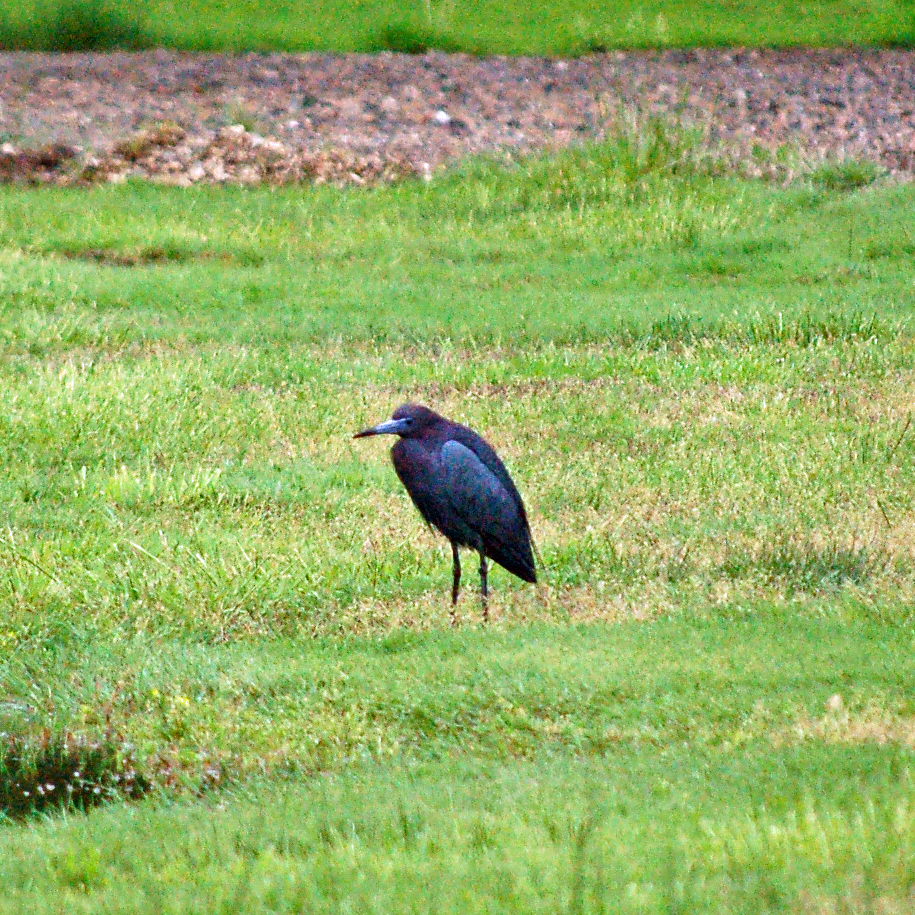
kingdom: Animalia
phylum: Chordata
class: Aves
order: Pelecaniformes
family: Ardeidae
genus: Egretta
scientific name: Egretta caerulea
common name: Little blue heron
